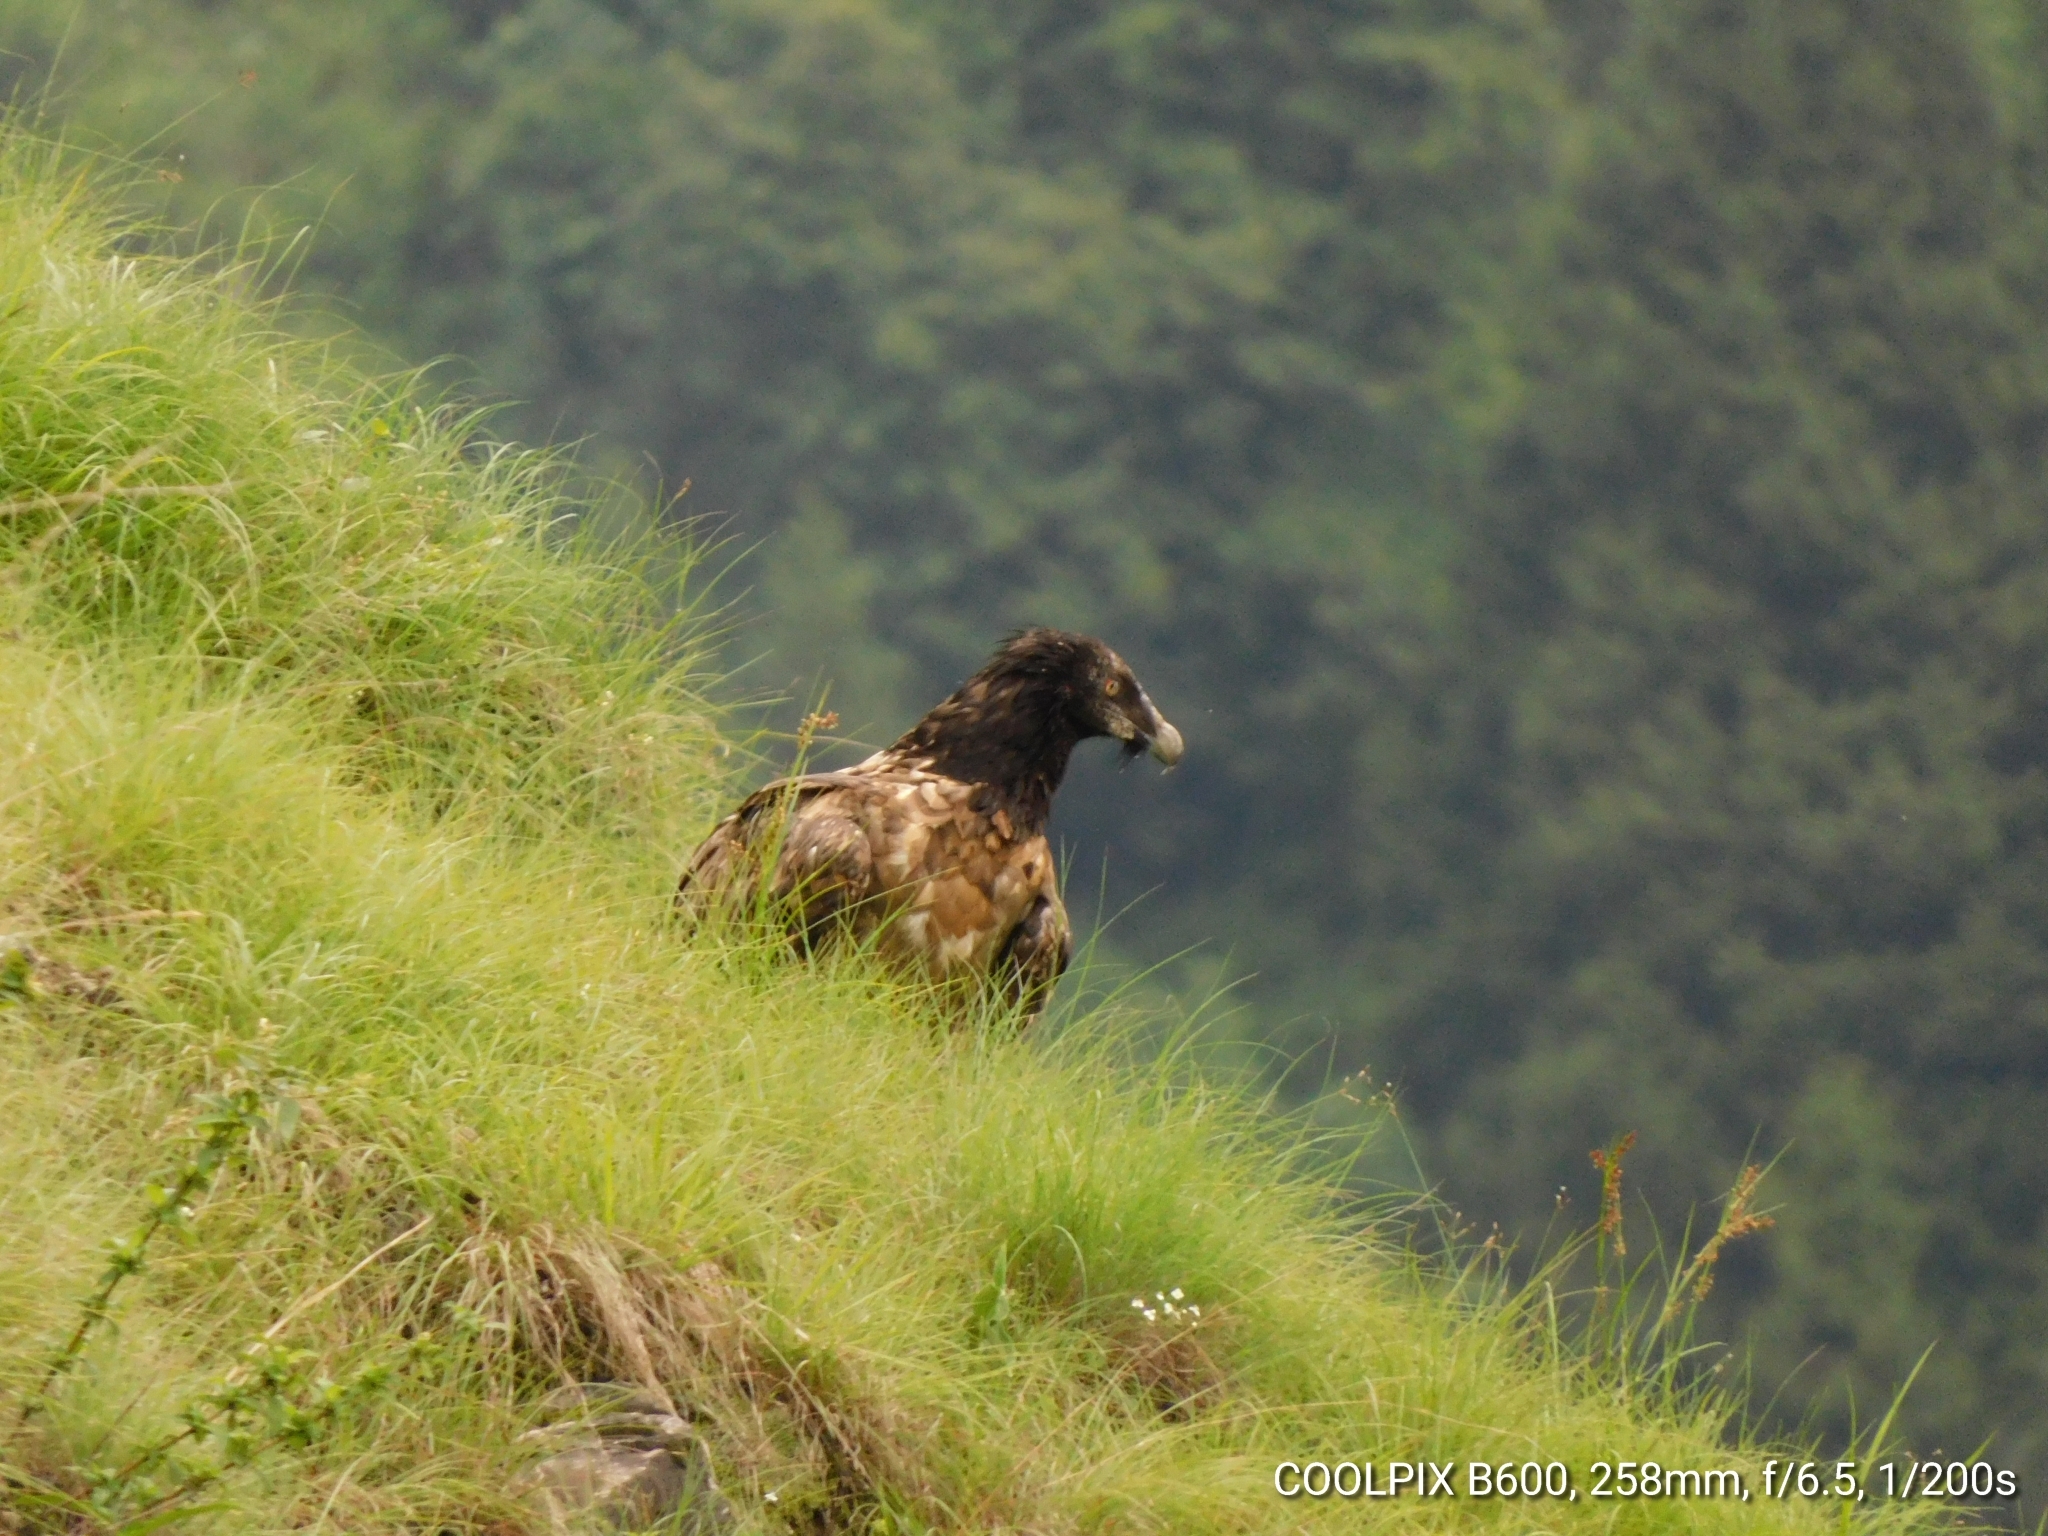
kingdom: Animalia
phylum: Chordata
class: Aves
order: Accipitriformes
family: Accipitridae
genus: Gypaetus
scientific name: Gypaetus barbatus
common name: Bearded vulture
